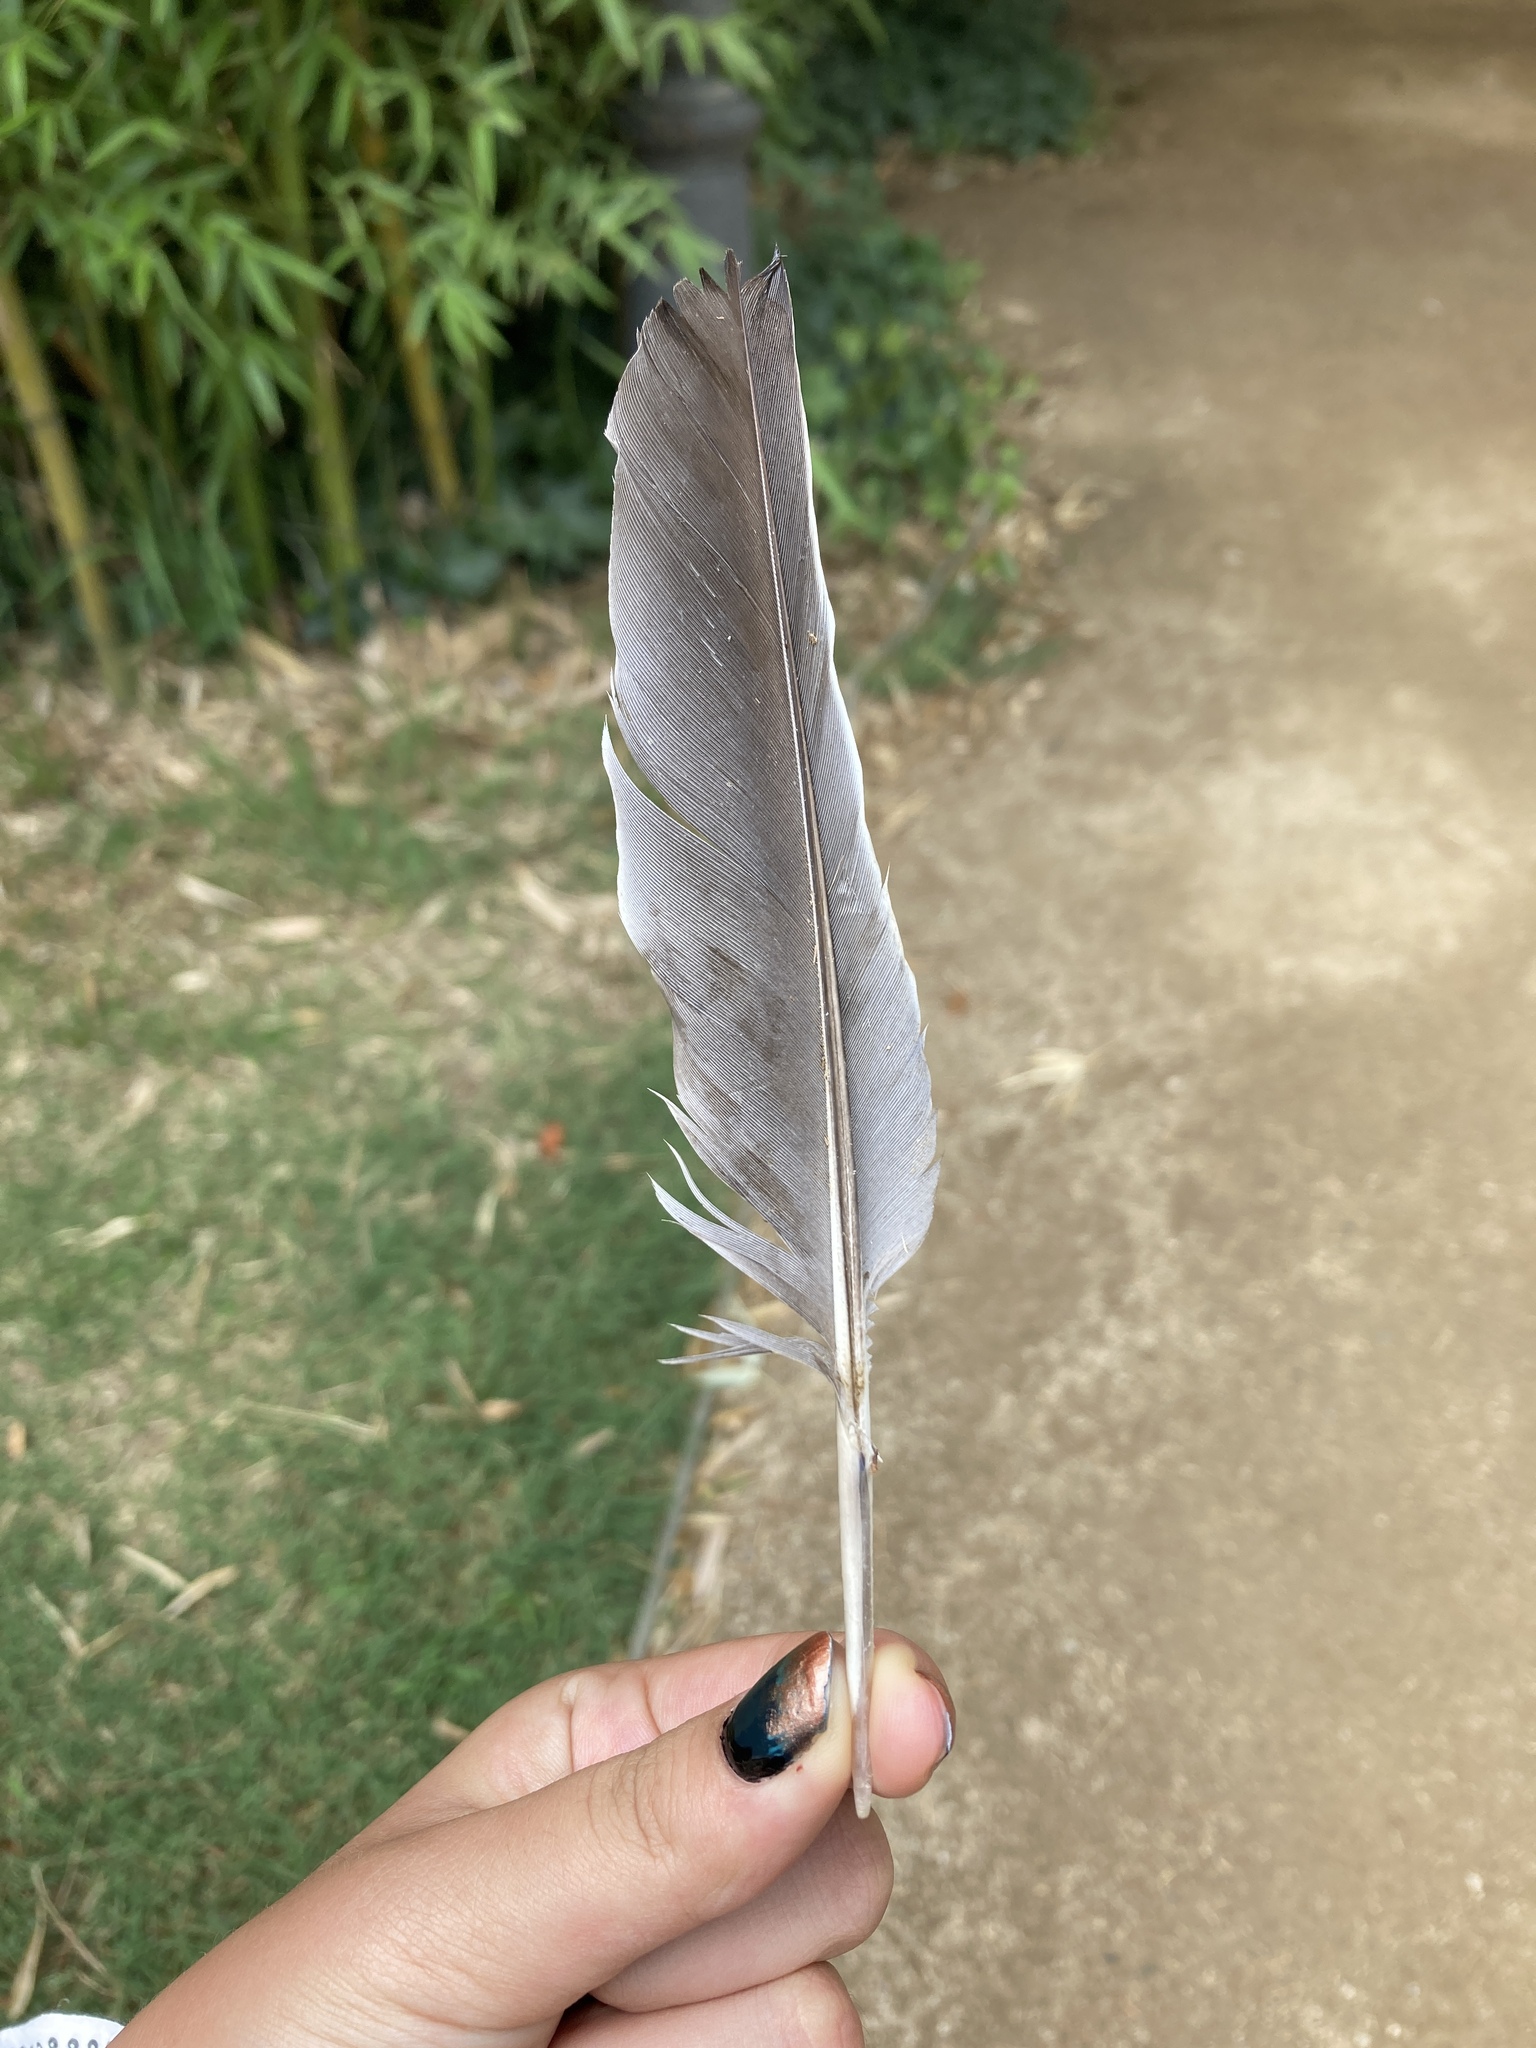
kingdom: Animalia
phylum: Chordata
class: Aves
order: Columbiformes
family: Columbidae
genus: Columba
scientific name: Columba palumbus
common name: Common wood pigeon
